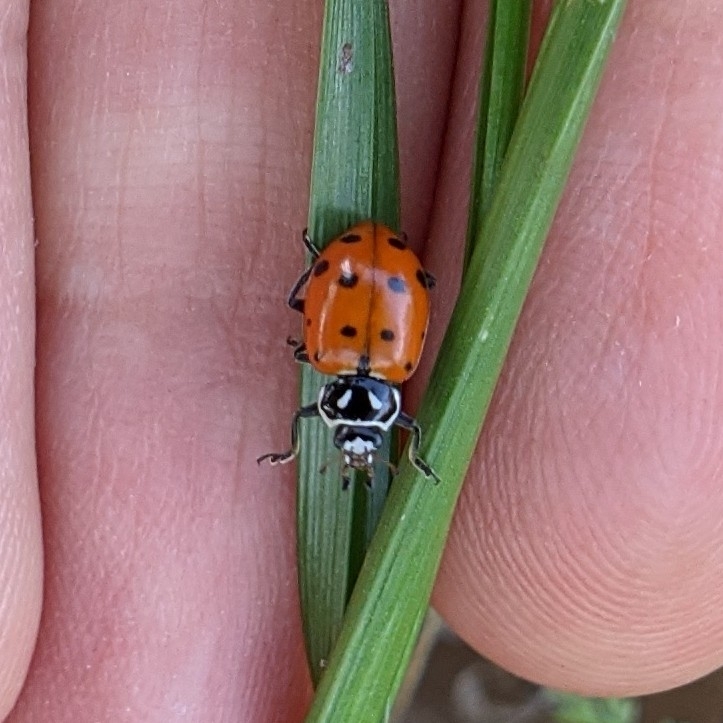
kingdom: Animalia
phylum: Arthropoda
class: Insecta
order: Coleoptera
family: Coccinellidae
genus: Hippodamia
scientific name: Hippodamia convergens
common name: Convergent lady beetle
